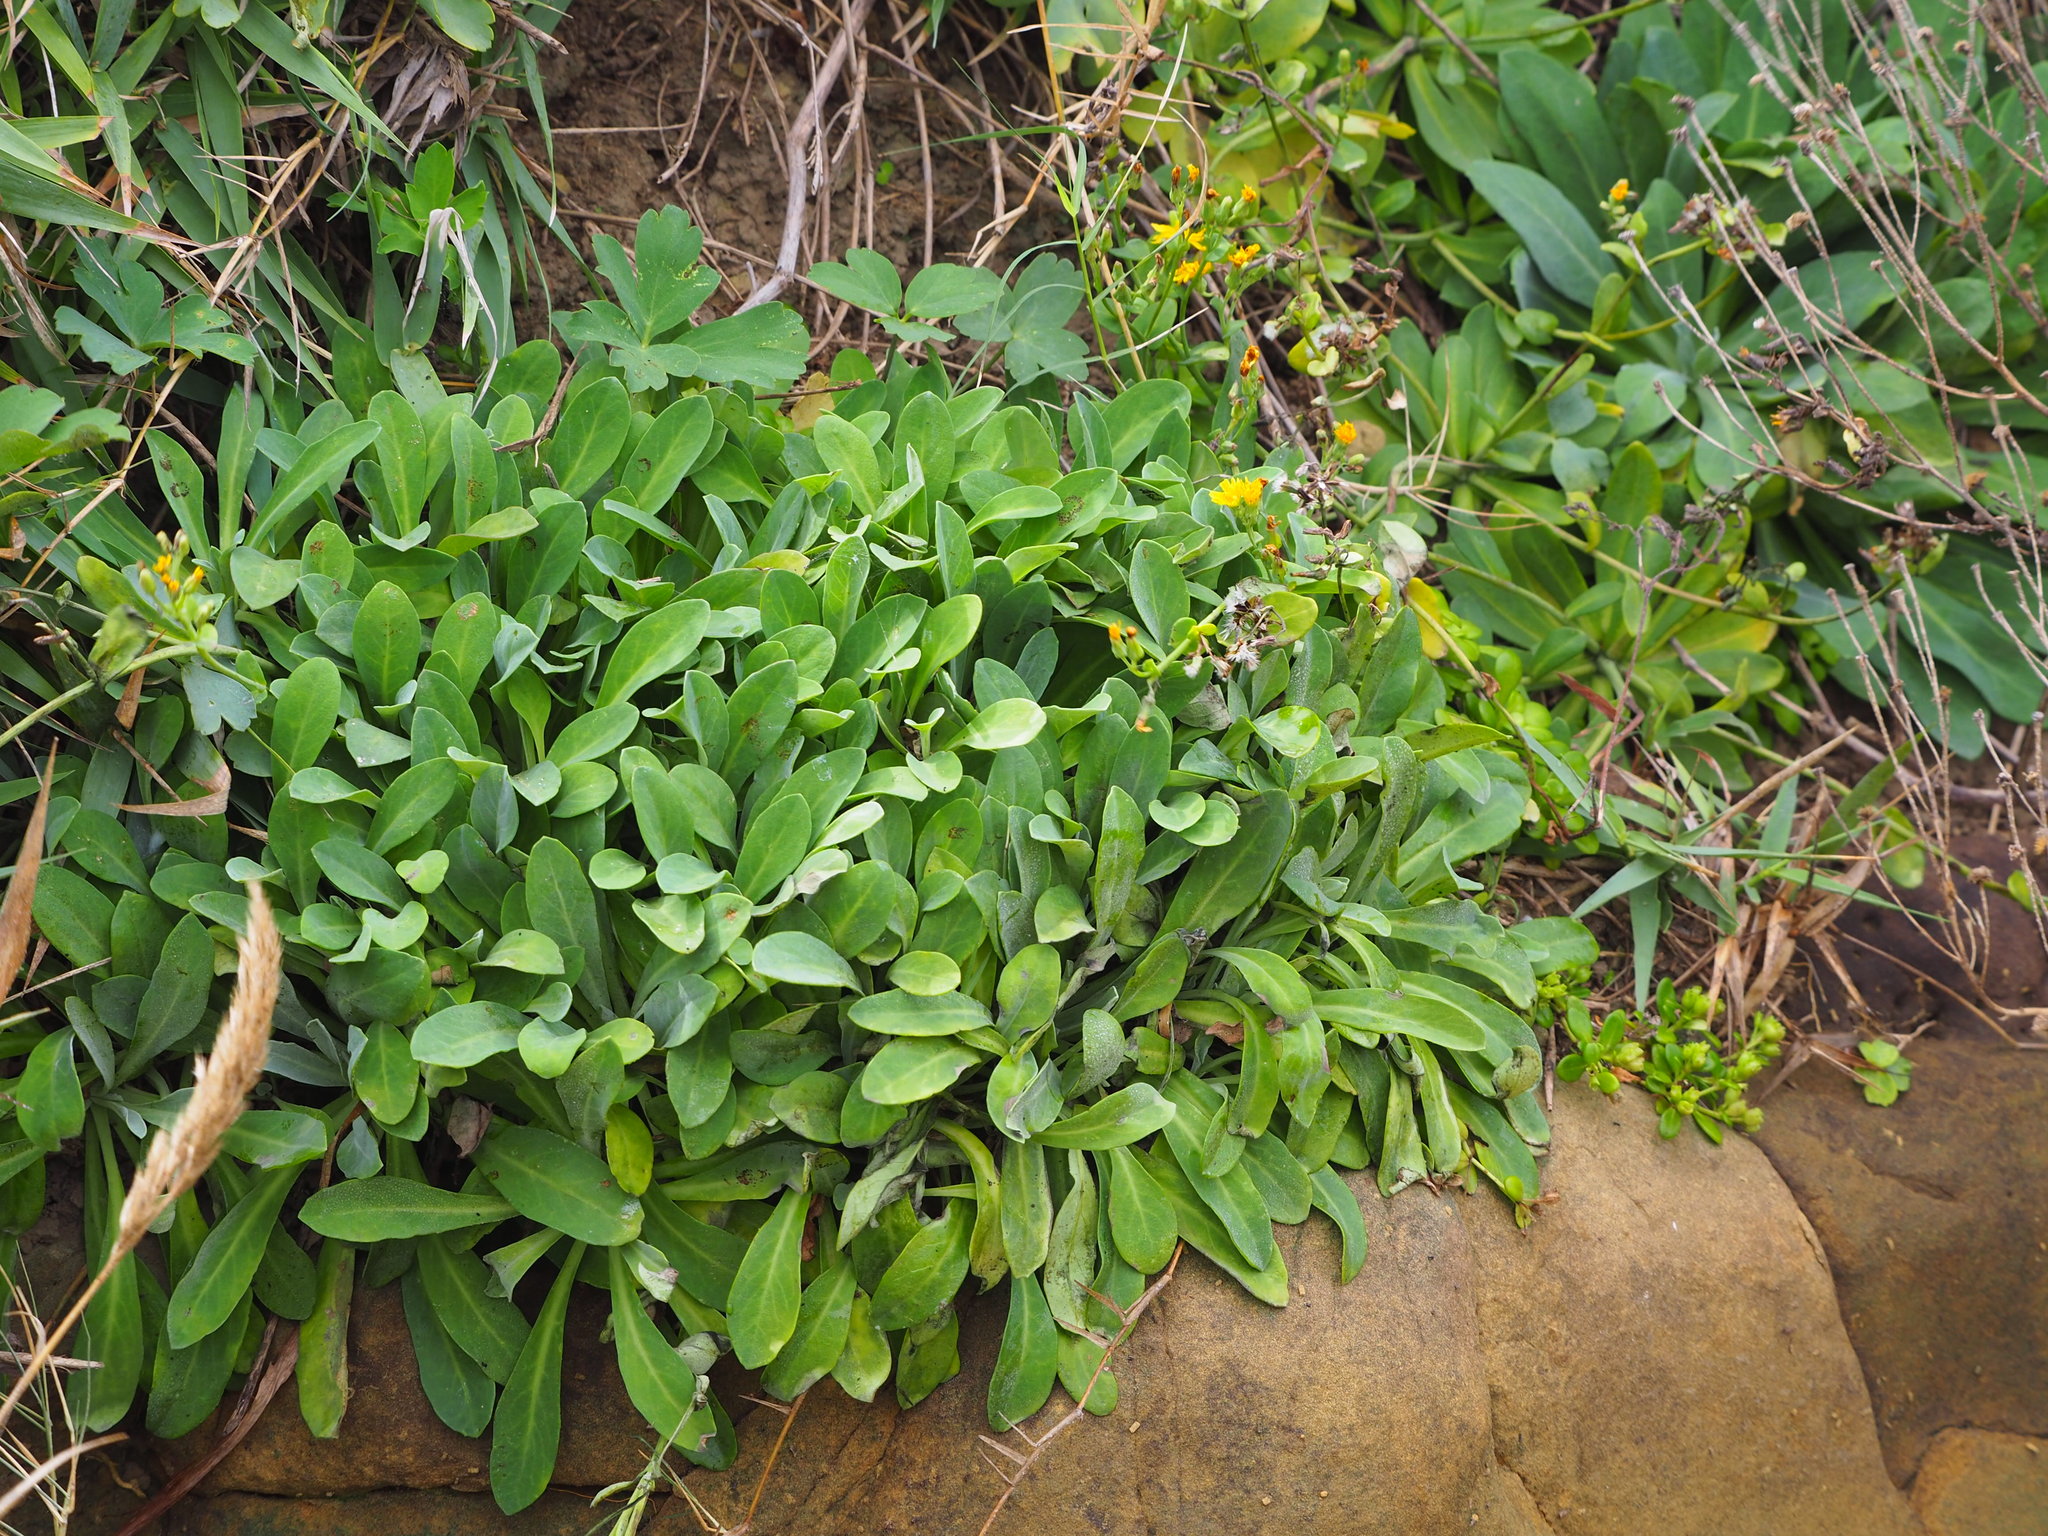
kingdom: Plantae
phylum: Tracheophyta
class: Magnoliopsida
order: Asterales
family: Asteraceae
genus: Crepidiastrum
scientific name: Crepidiastrum lanceolatum
